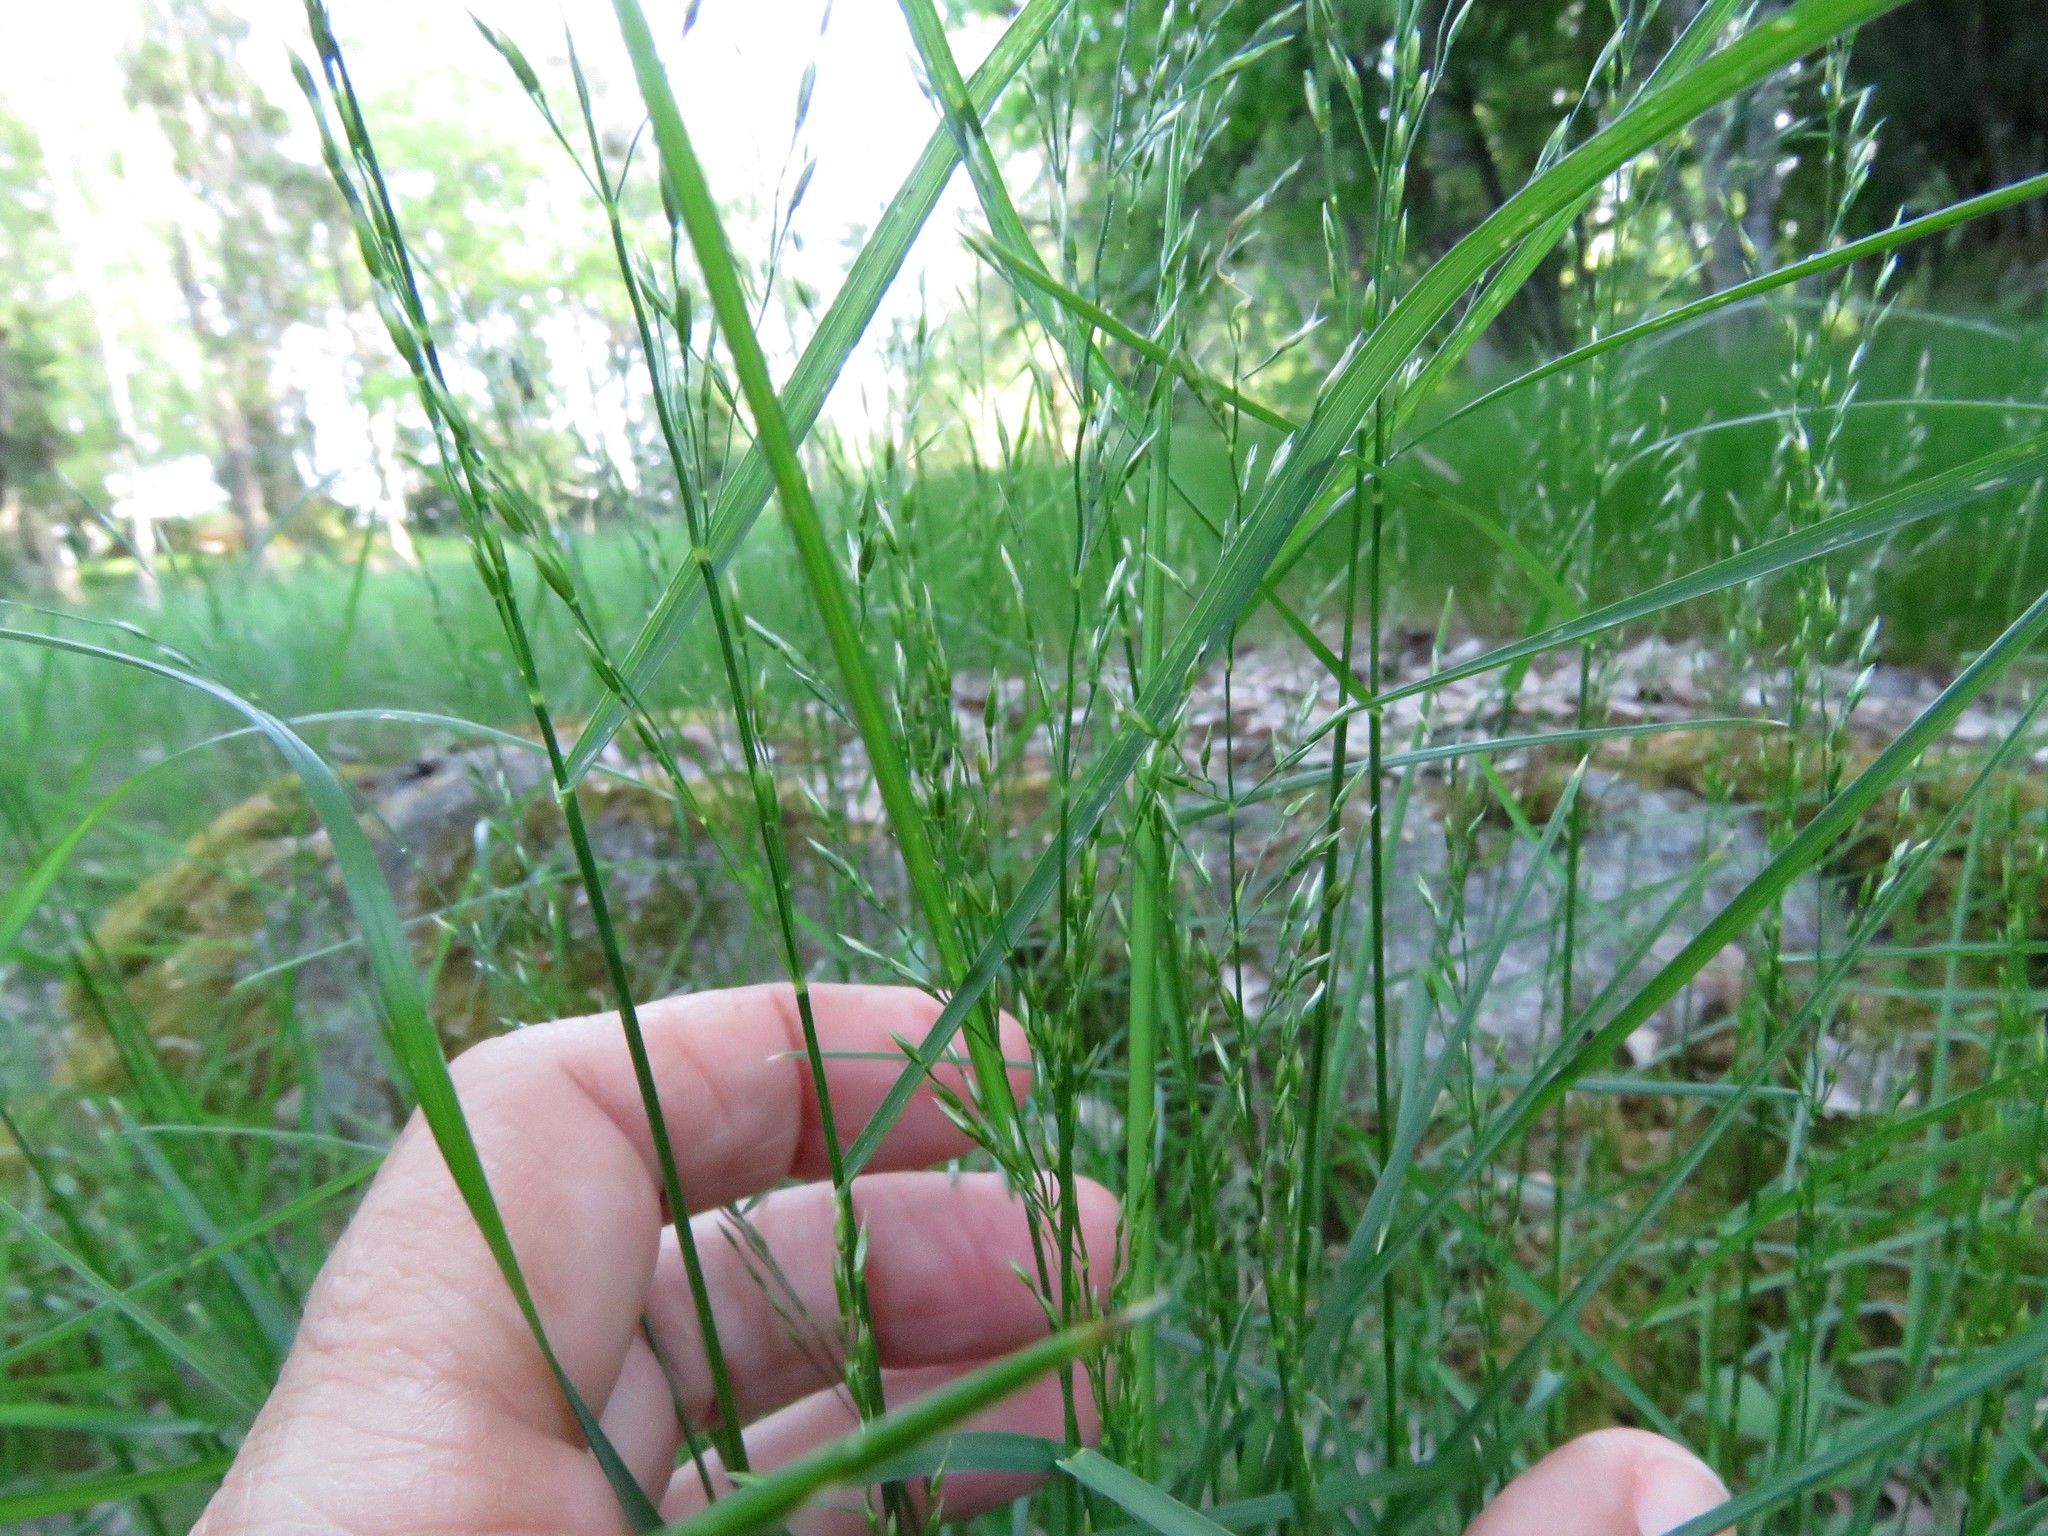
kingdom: Plantae
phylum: Tracheophyta
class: Liliopsida
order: Poales
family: Poaceae
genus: Poa
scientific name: Poa nemoralis
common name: Wood bluegrass
